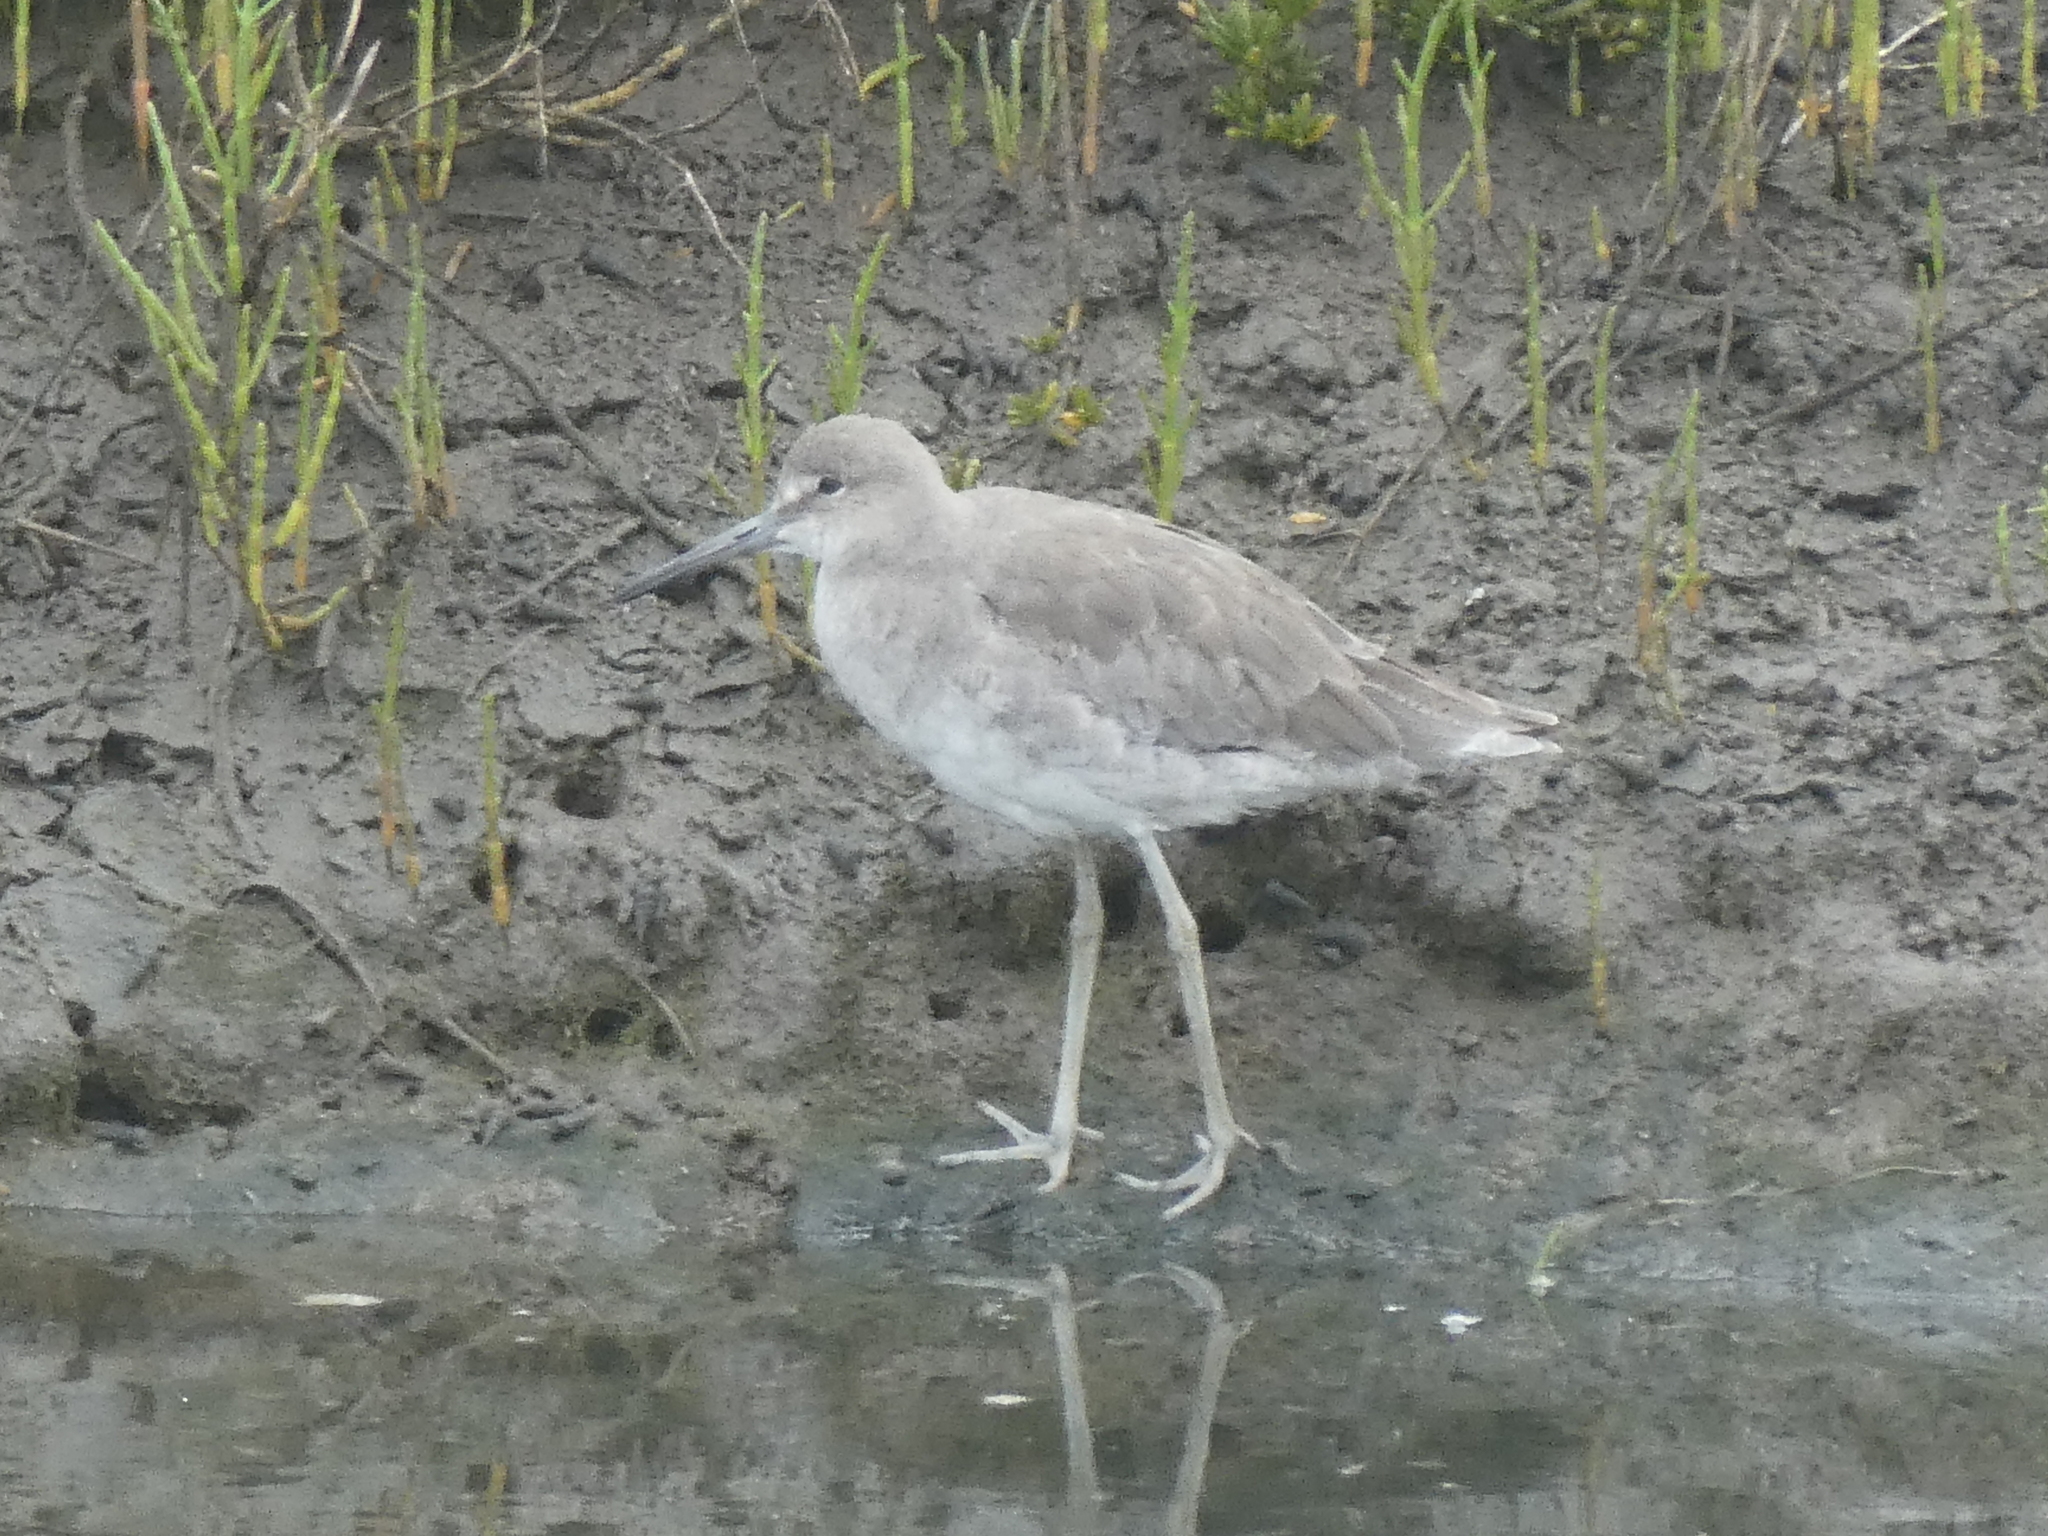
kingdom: Animalia
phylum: Chordata
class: Aves
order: Charadriiformes
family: Scolopacidae
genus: Tringa
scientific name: Tringa semipalmata
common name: Willet
